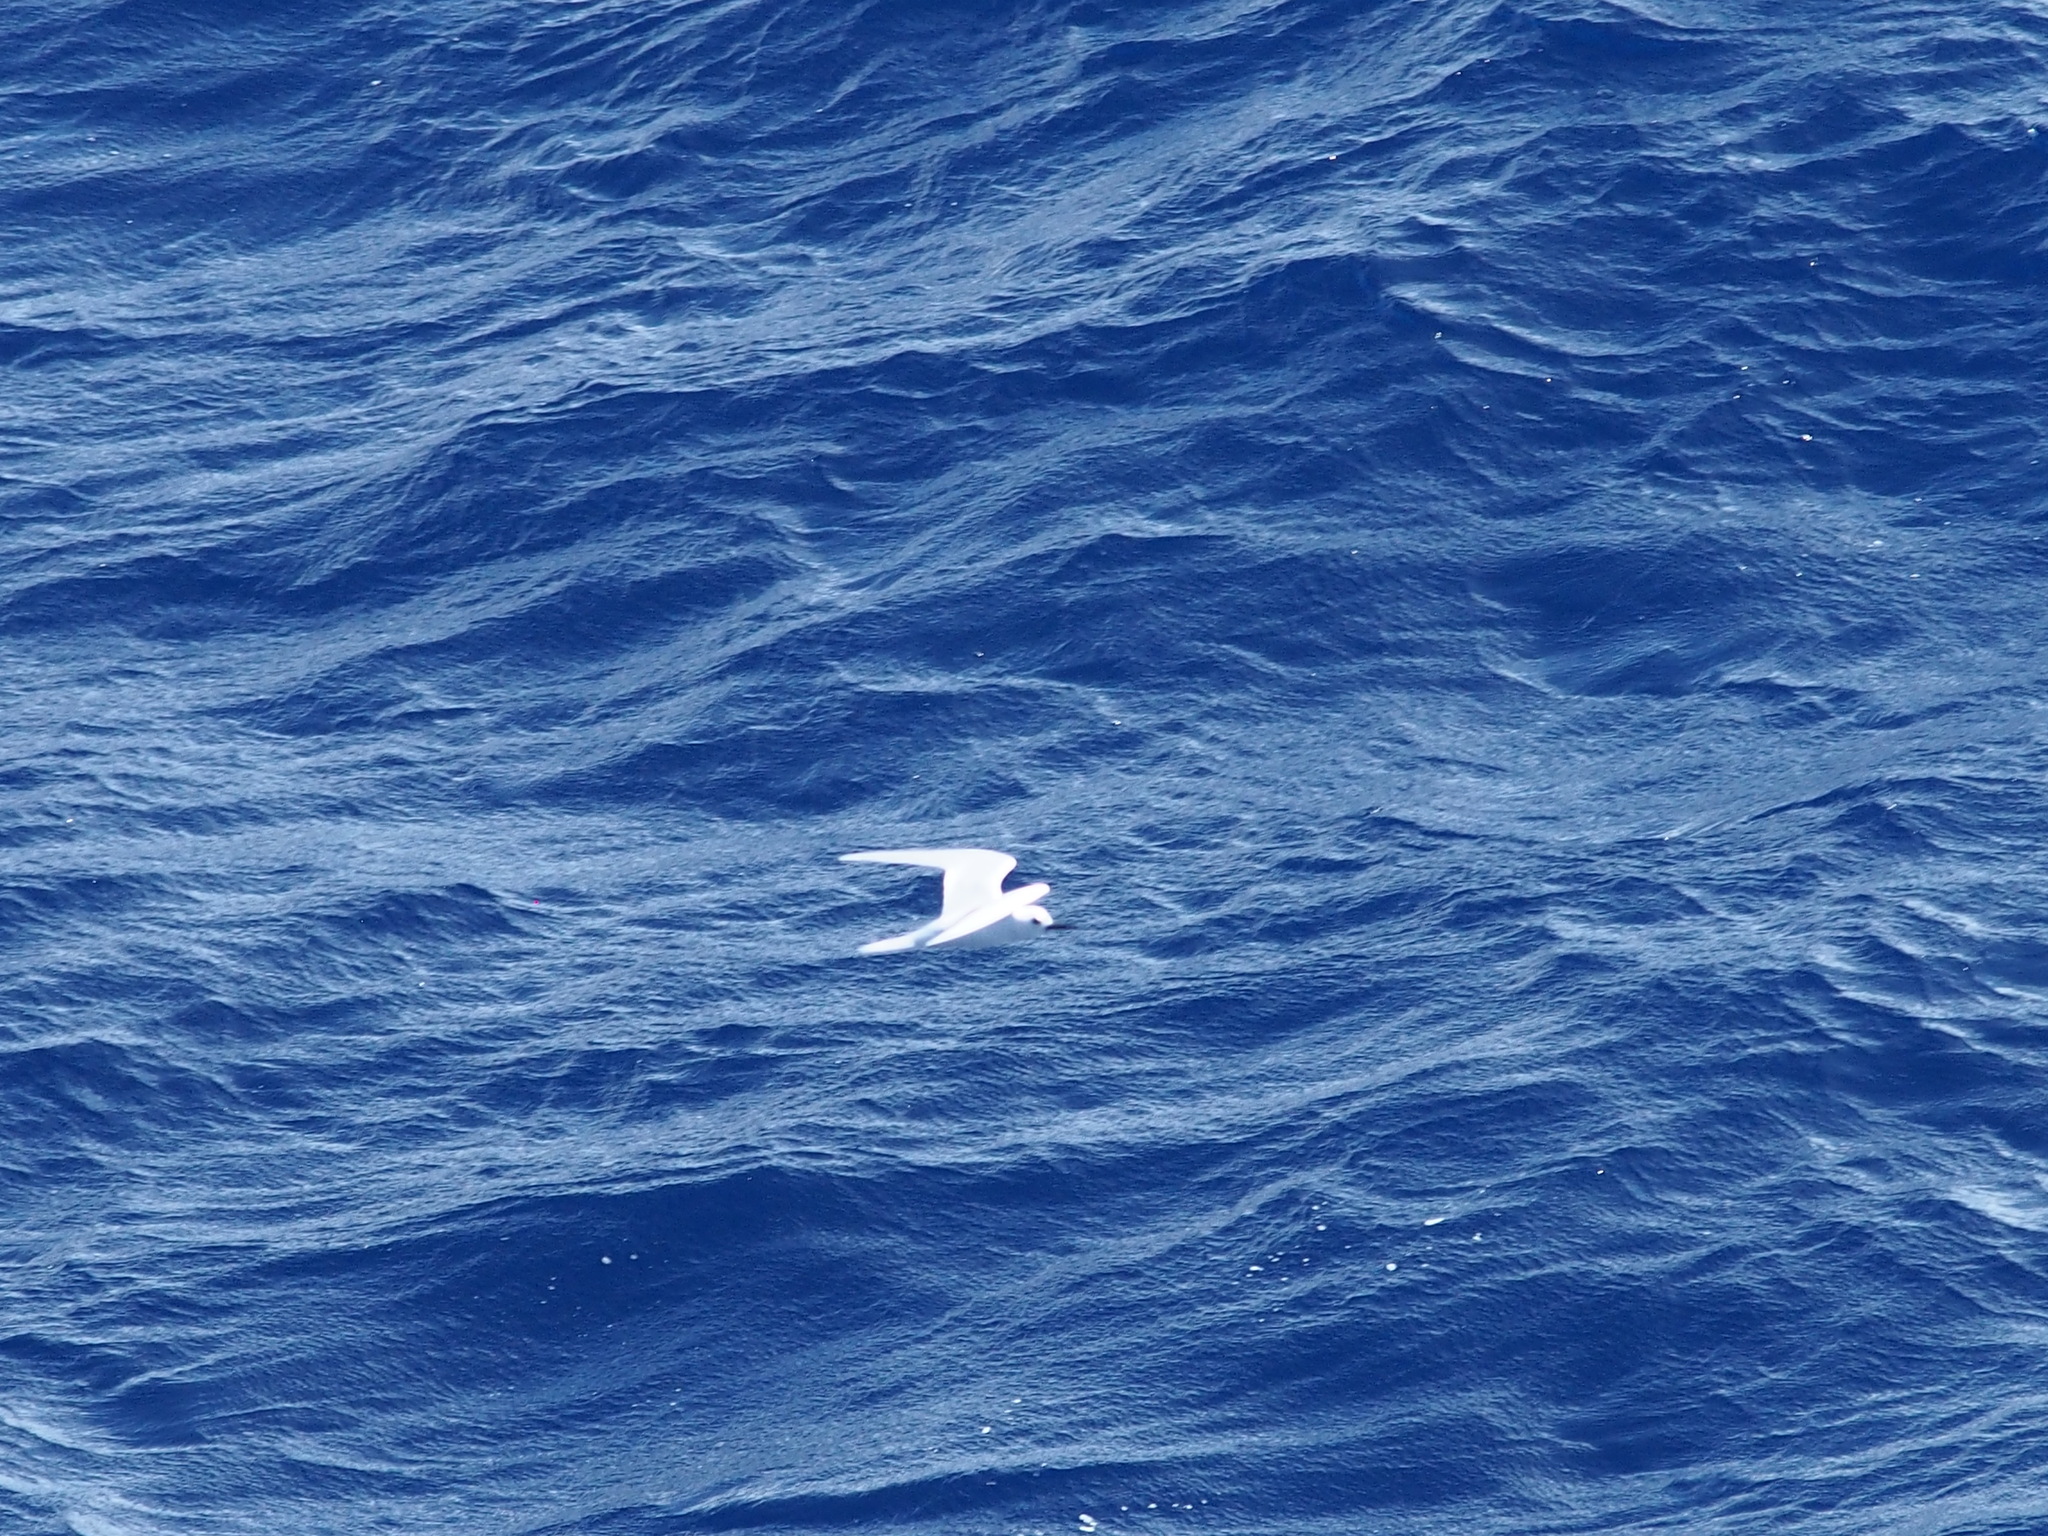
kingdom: Animalia
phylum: Chordata
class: Aves
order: Charadriiformes
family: Laridae
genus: Gygis
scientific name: Gygis alba
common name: White tern
